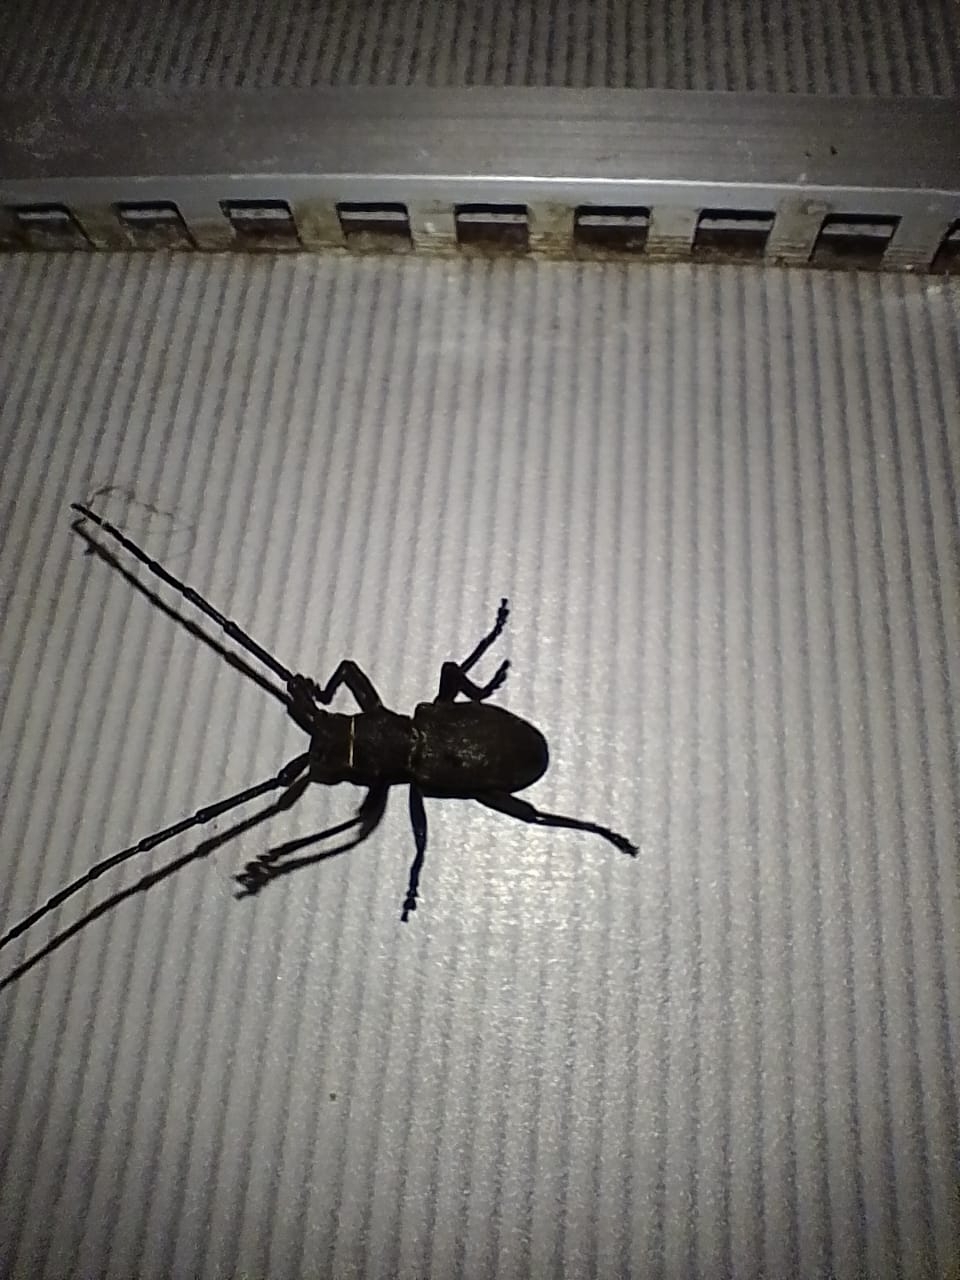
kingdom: Animalia
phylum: Arthropoda
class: Insecta
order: Coleoptera
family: Cerambycidae
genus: Morimus
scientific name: Morimus verecundus
